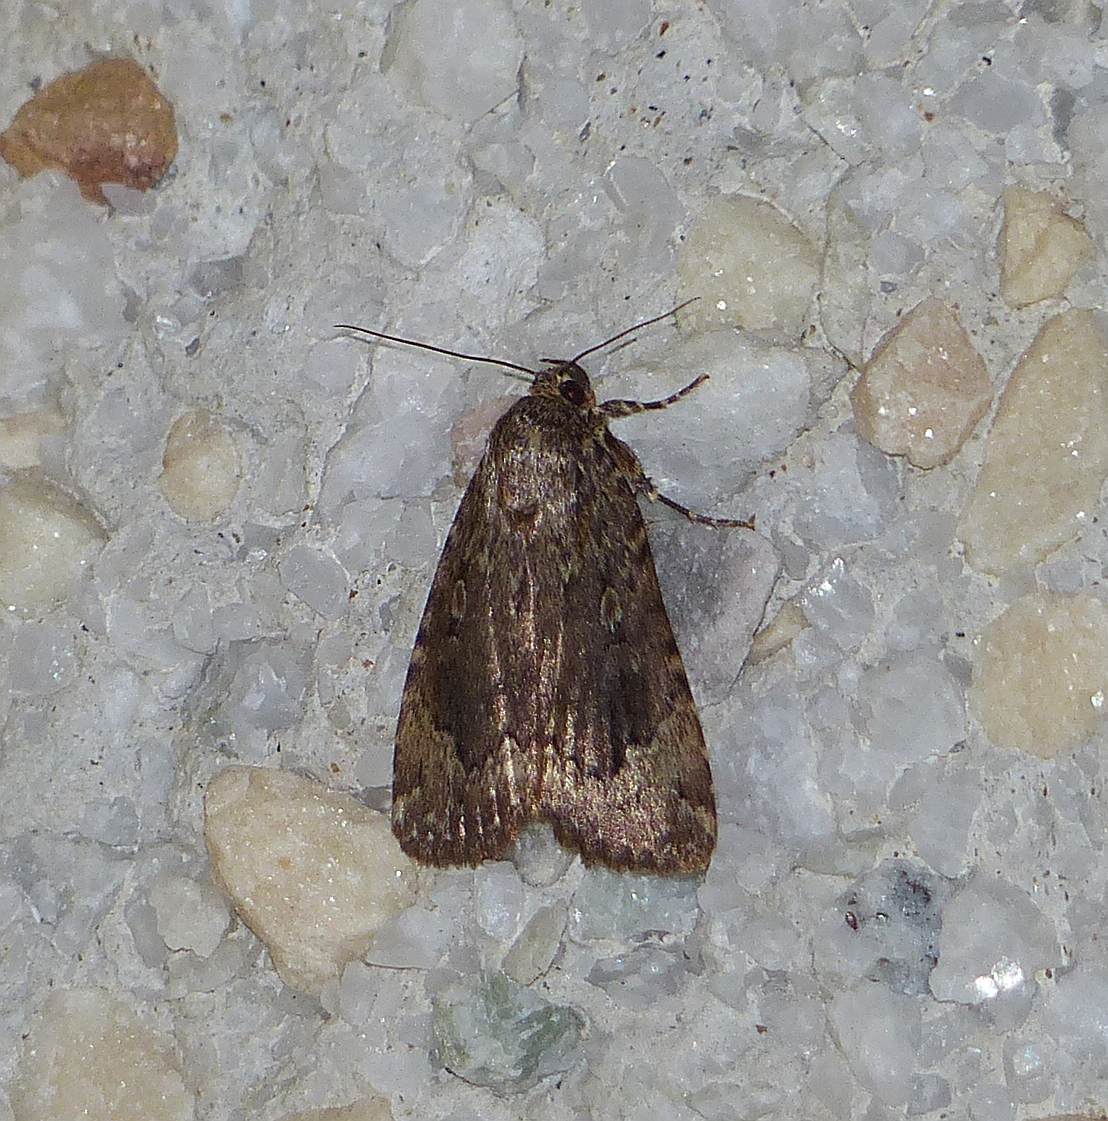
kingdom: Animalia
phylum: Arthropoda
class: Insecta
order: Lepidoptera
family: Noctuidae
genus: Amphipyra
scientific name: Amphipyra pyramidoides
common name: American copper underwing
